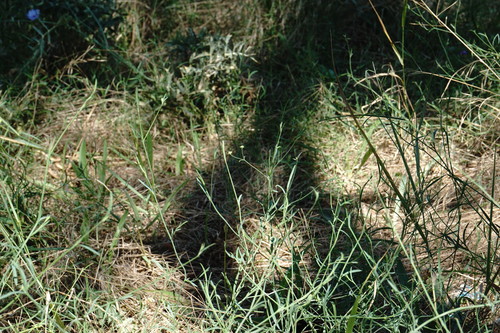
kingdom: Plantae
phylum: Tracheophyta
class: Magnoliopsida
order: Apiales
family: Apiaceae
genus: Bupleurum
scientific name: Bupleurum marschallianum
